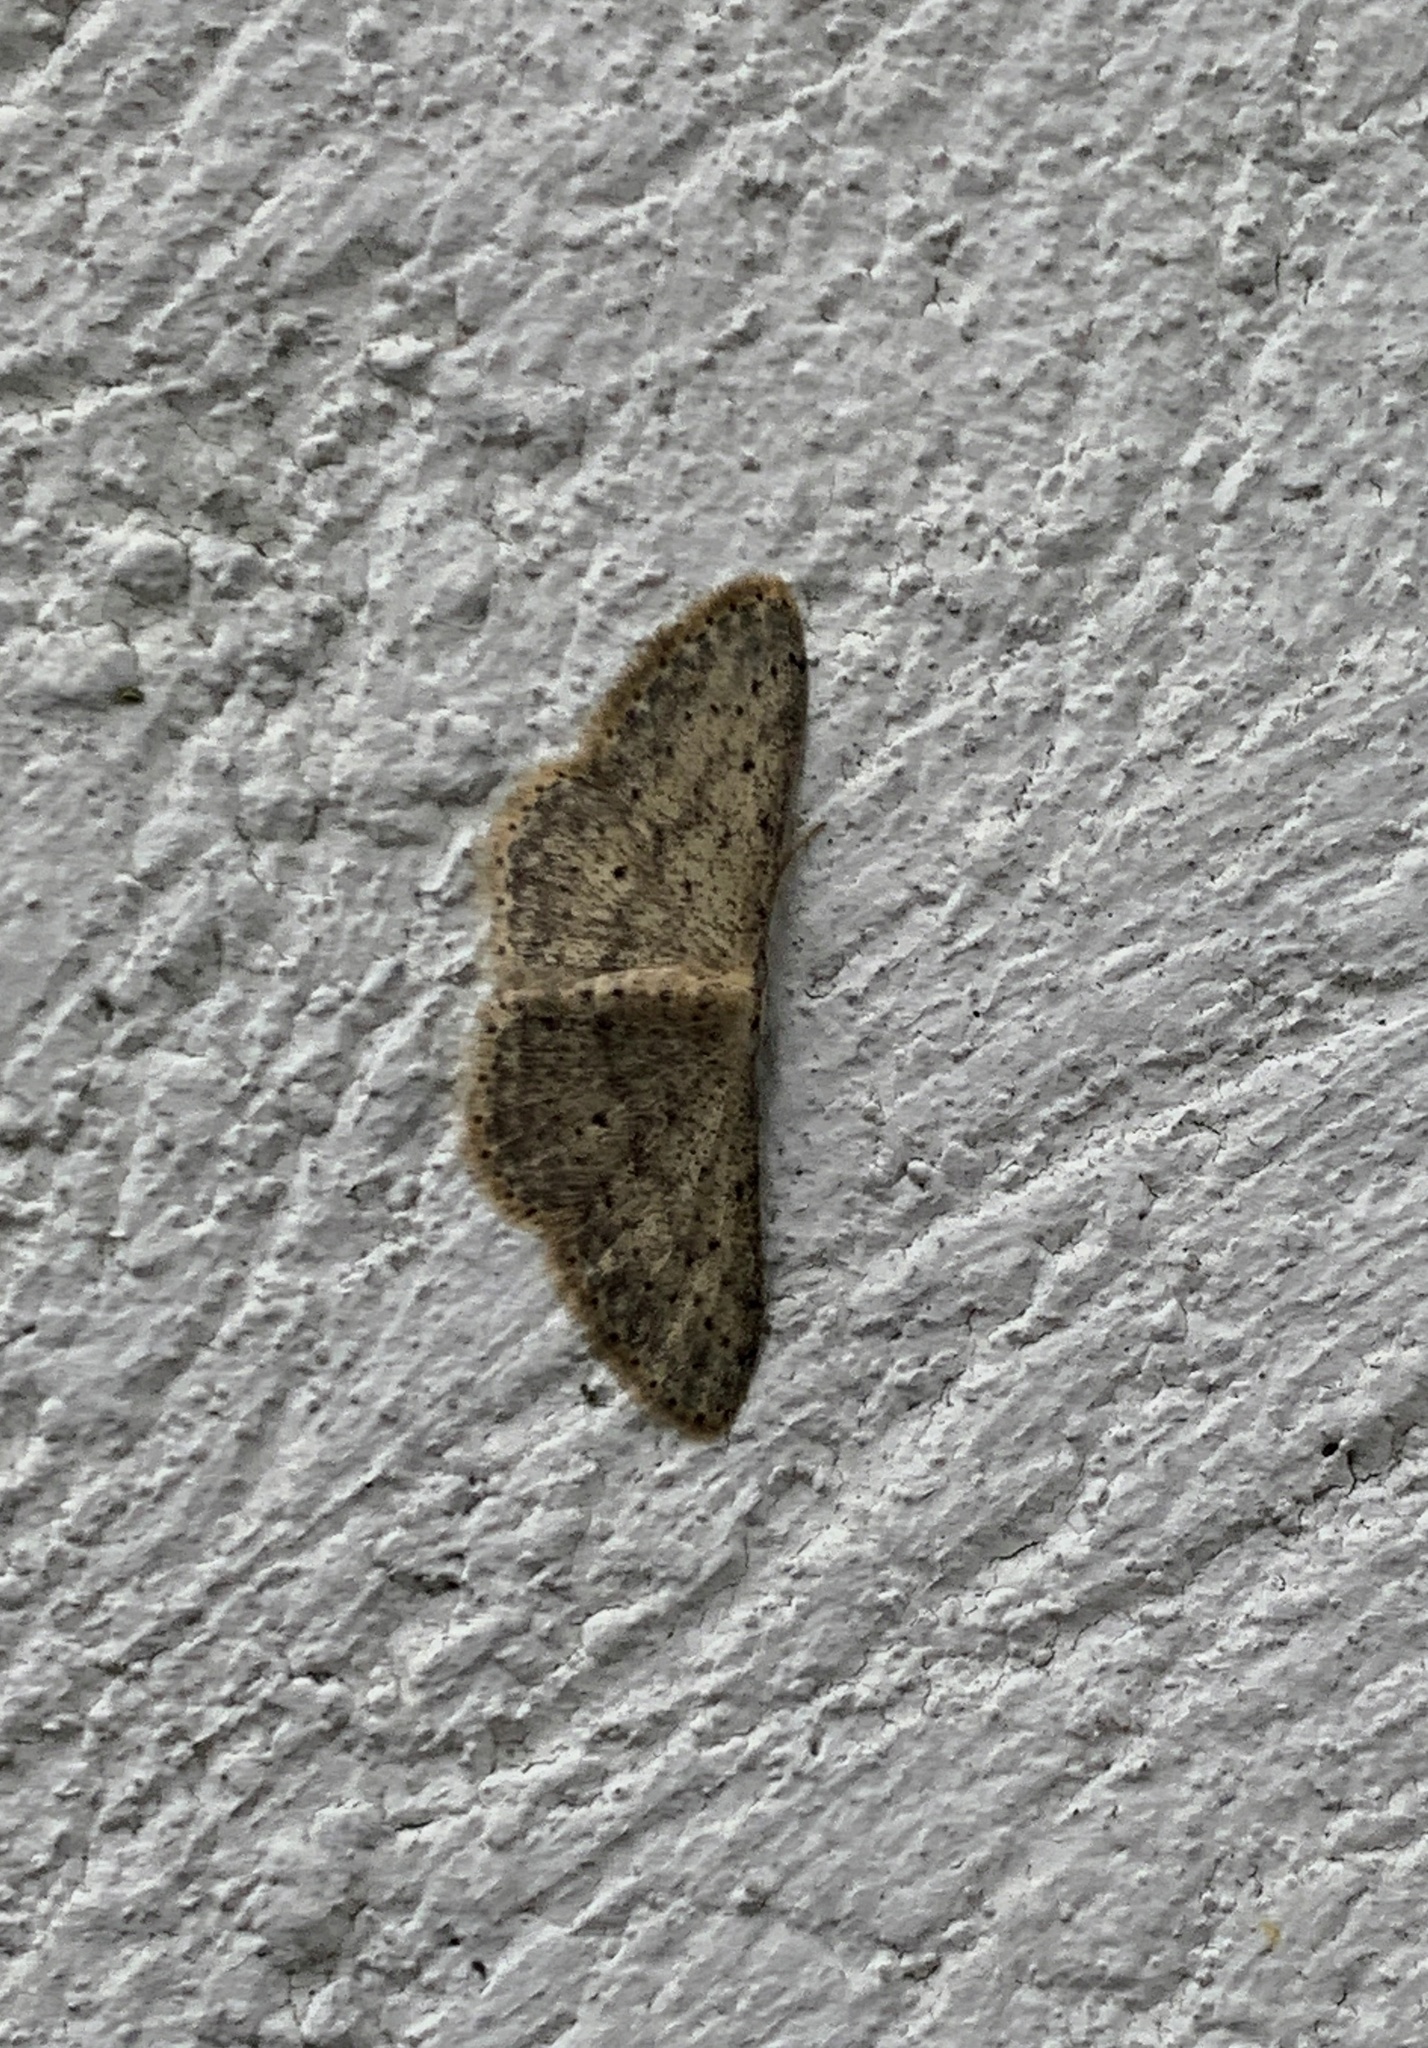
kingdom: Animalia
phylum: Arthropoda
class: Insecta
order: Lepidoptera
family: Geometridae
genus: Idaea
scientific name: Idaea seriata
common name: Small dusty wave
